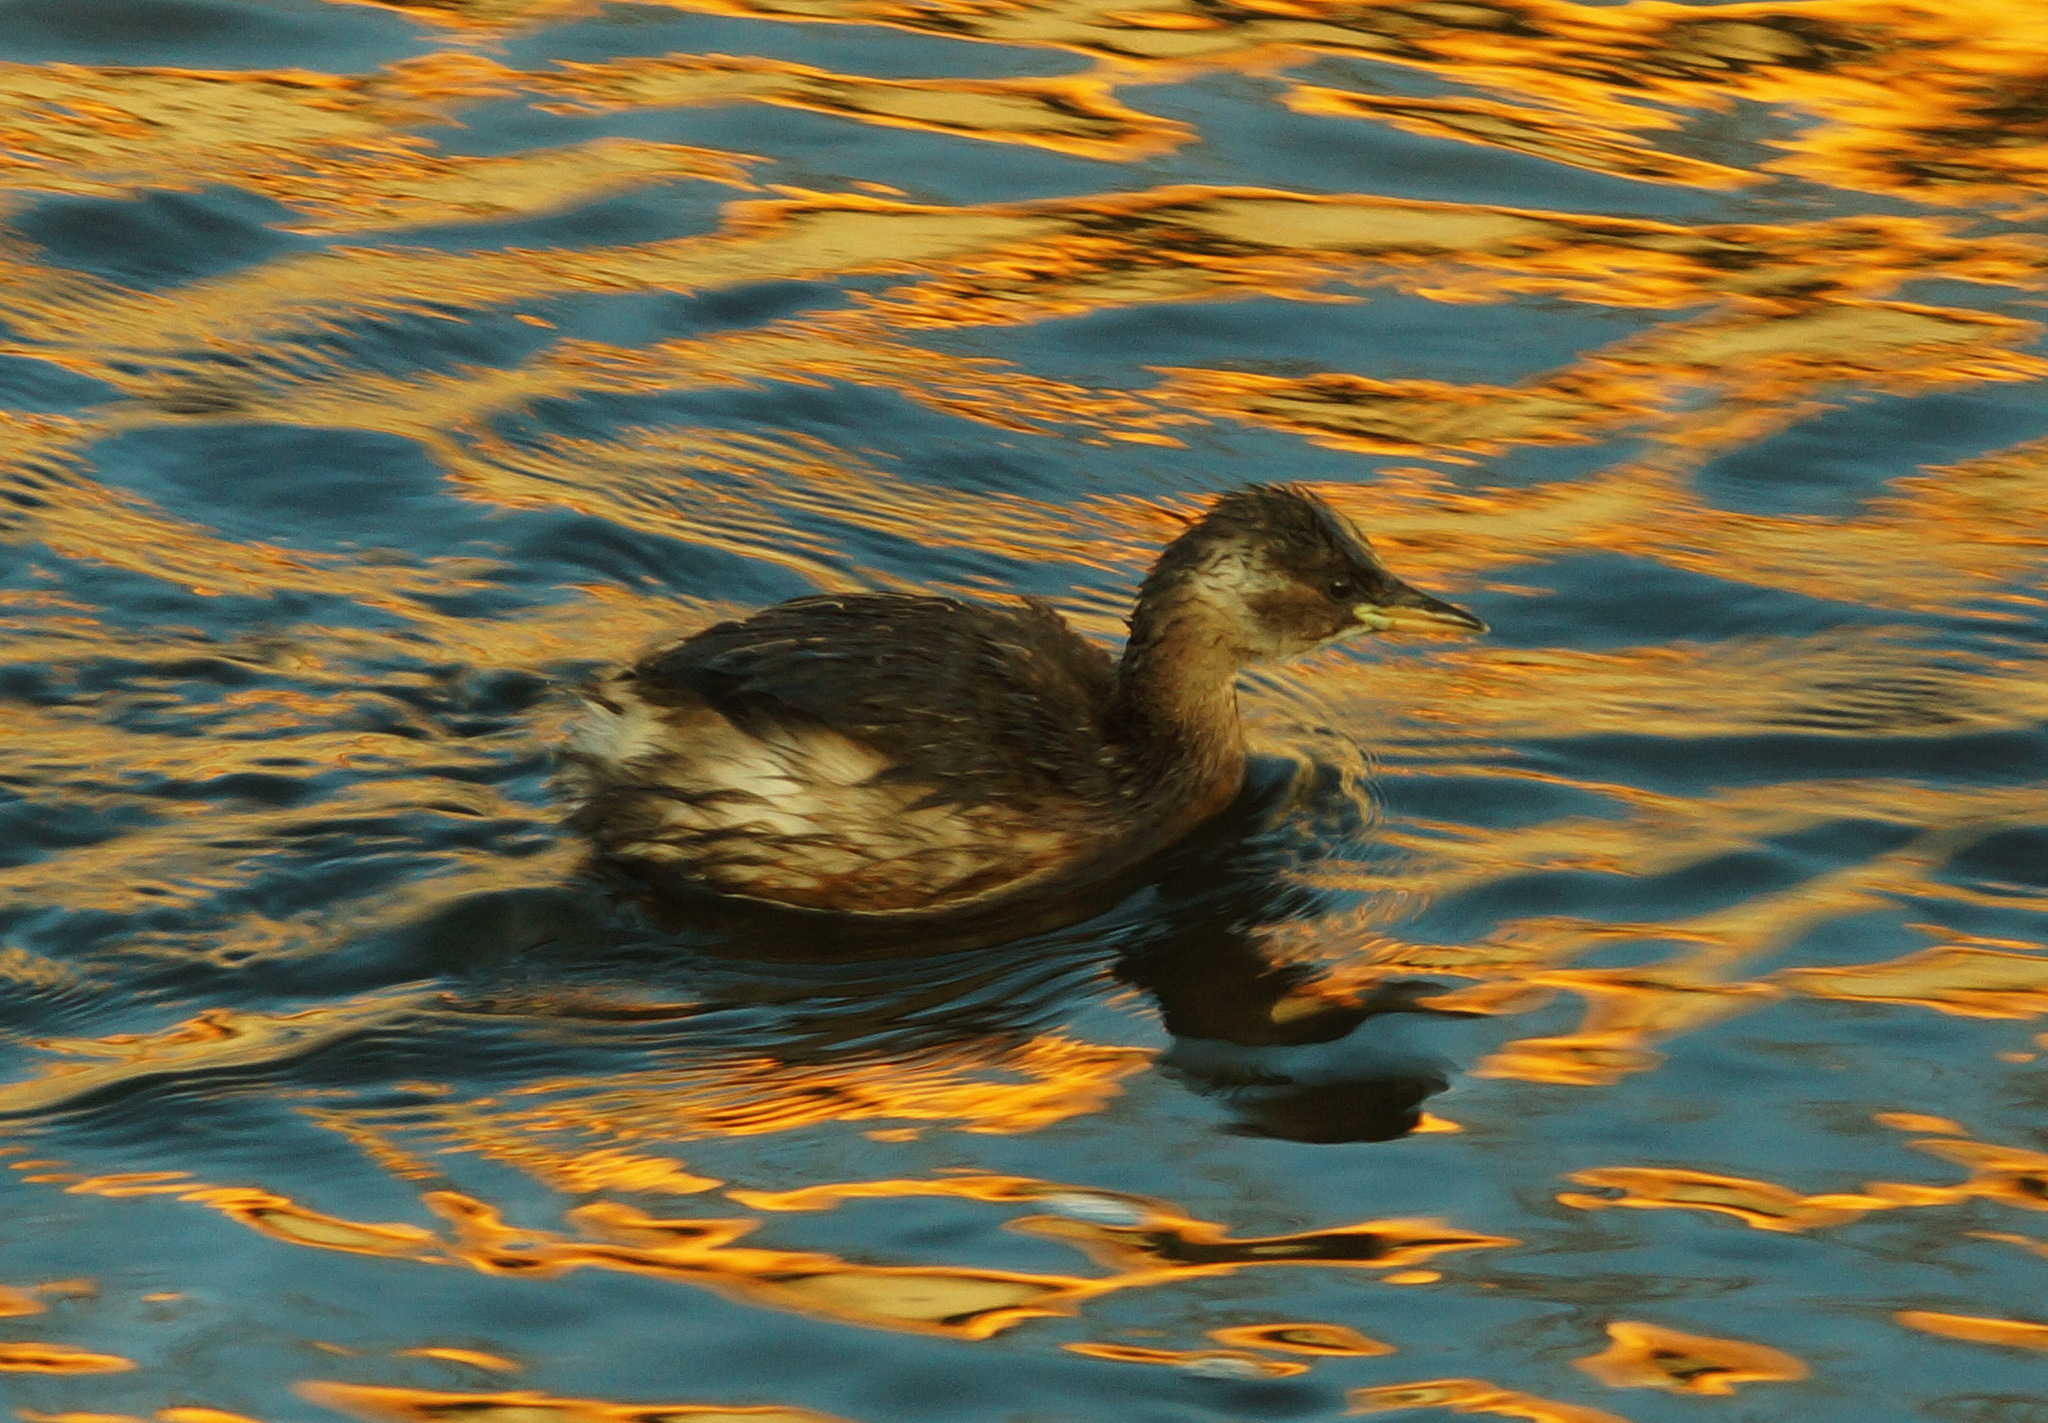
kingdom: Animalia
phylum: Chordata
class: Aves
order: Podicipediformes
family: Podicipedidae
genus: Tachybaptus
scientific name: Tachybaptus ruficollis
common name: Little grebe
